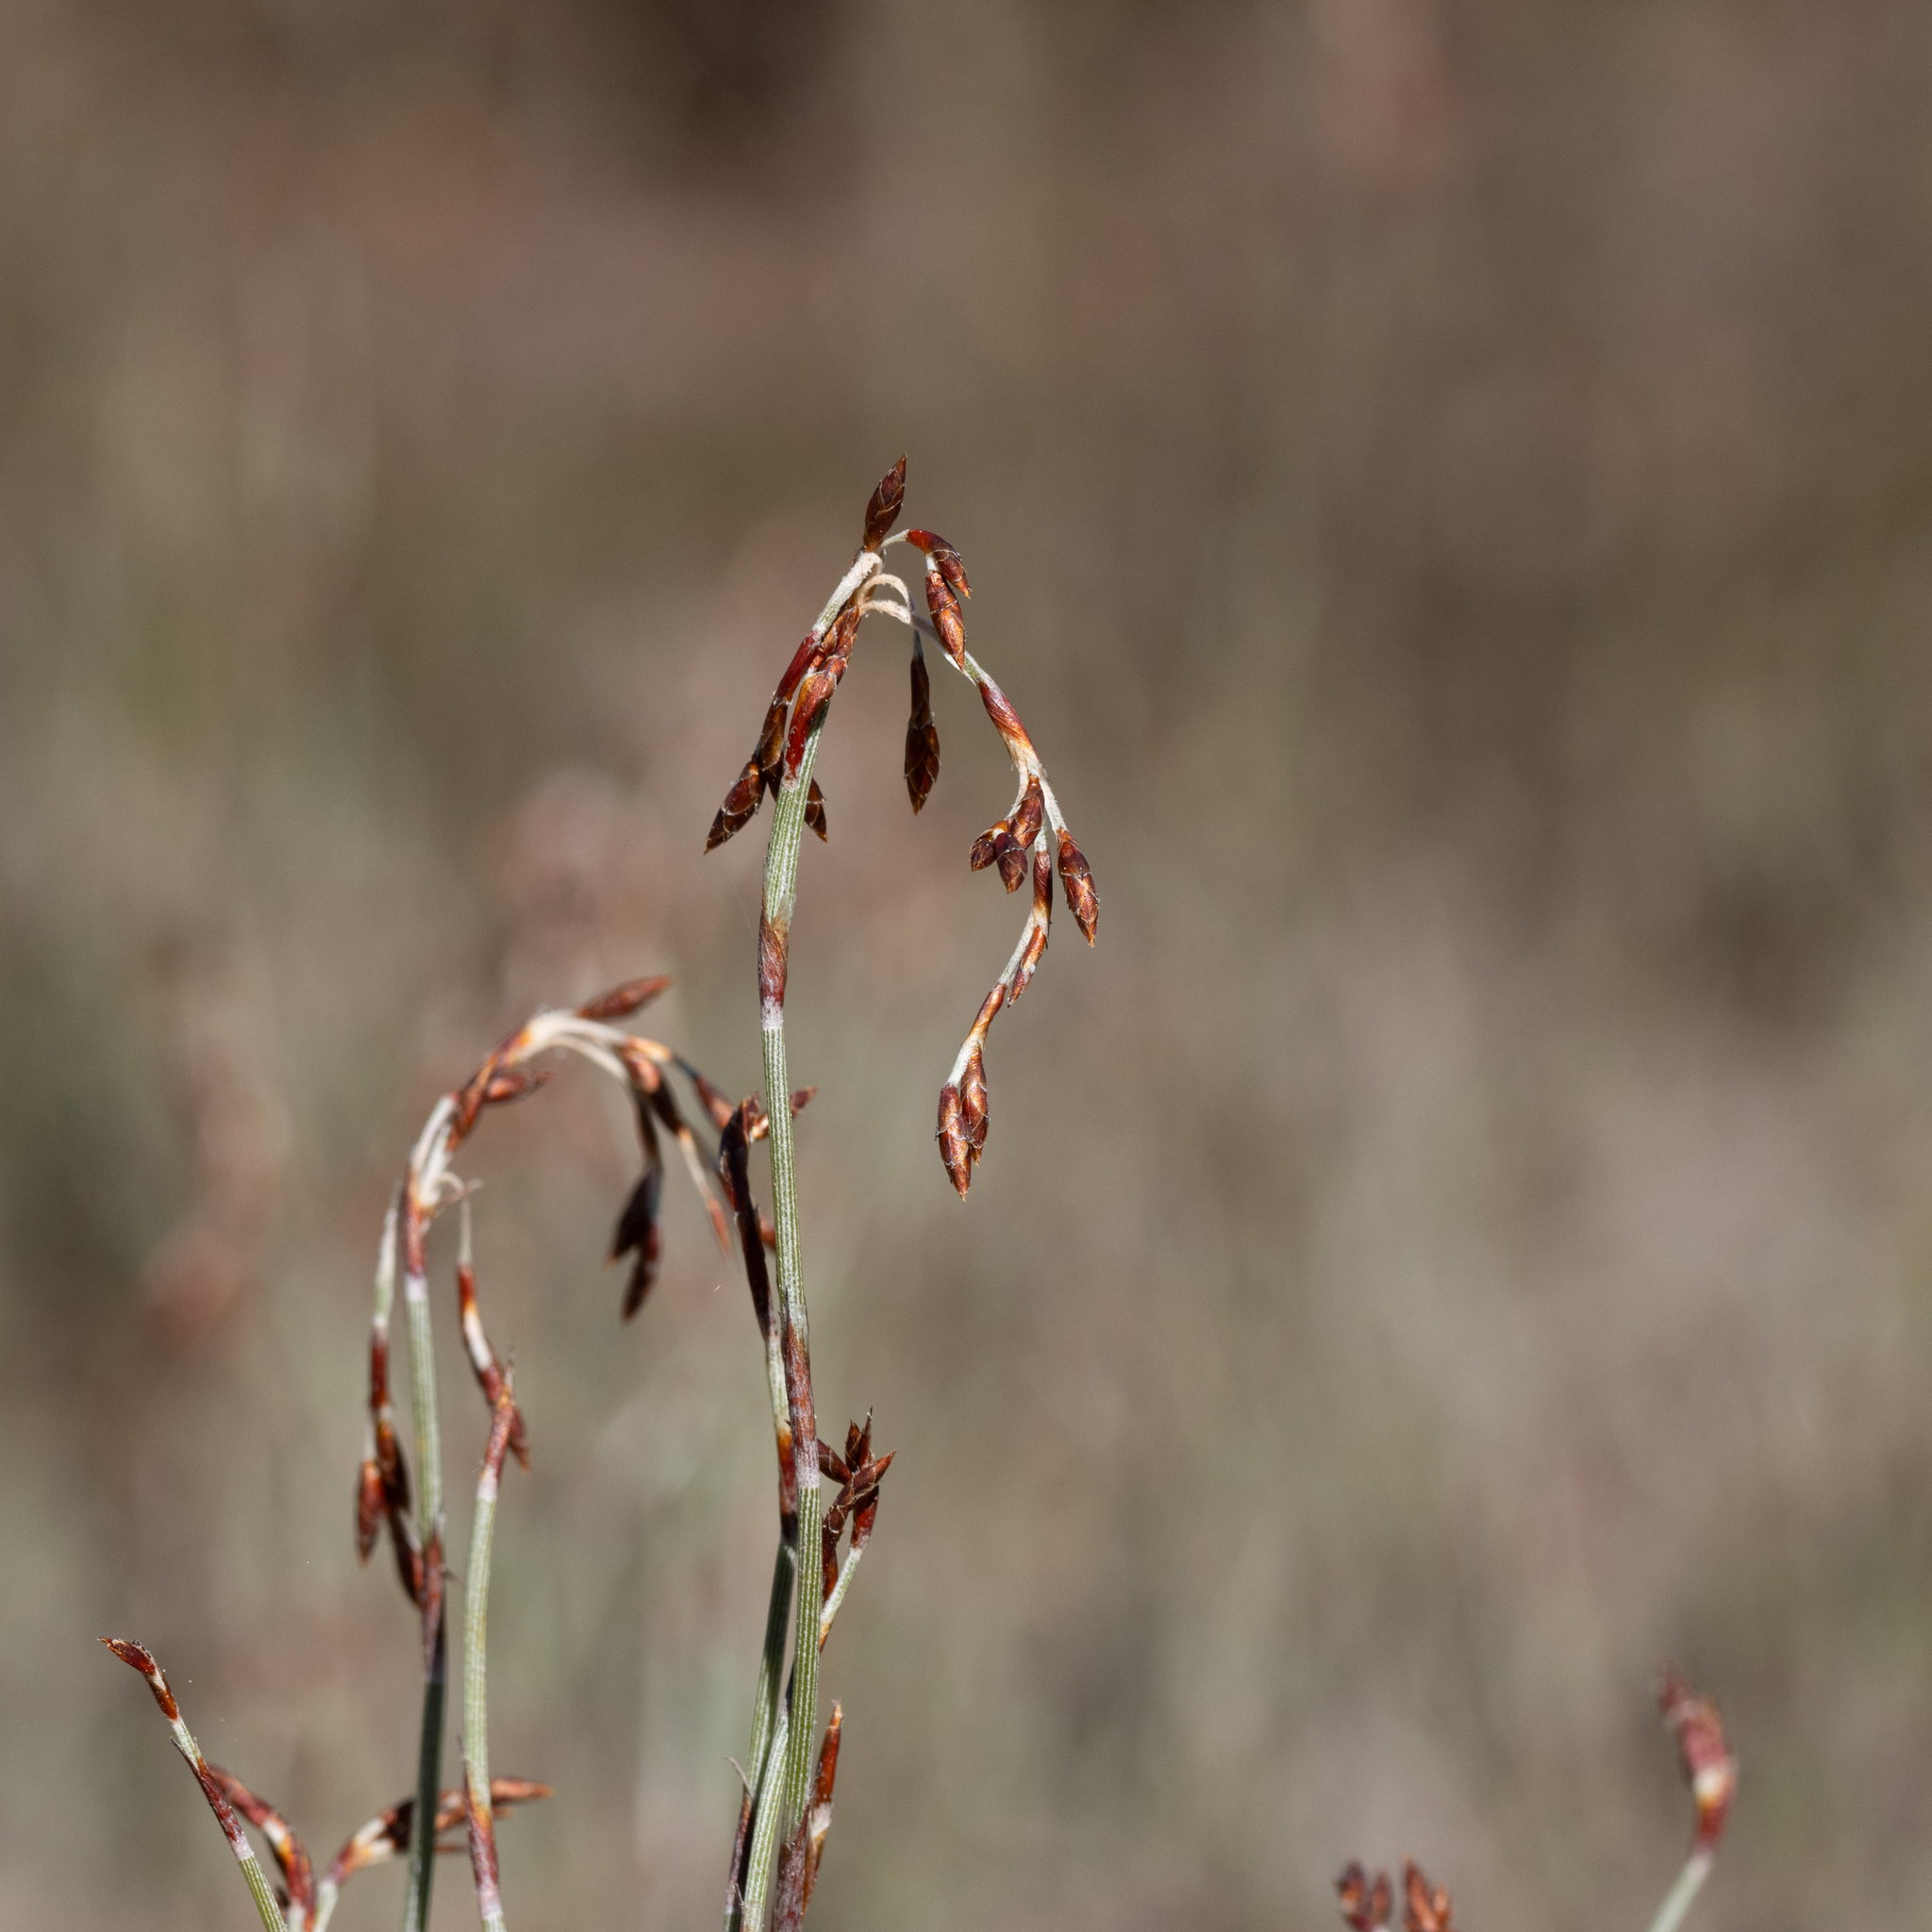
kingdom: Plantae
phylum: Tracheophyta
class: Liliopsida
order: Poales
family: Restionaceae
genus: Hypolaena
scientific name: Hypolaena fastigiata
